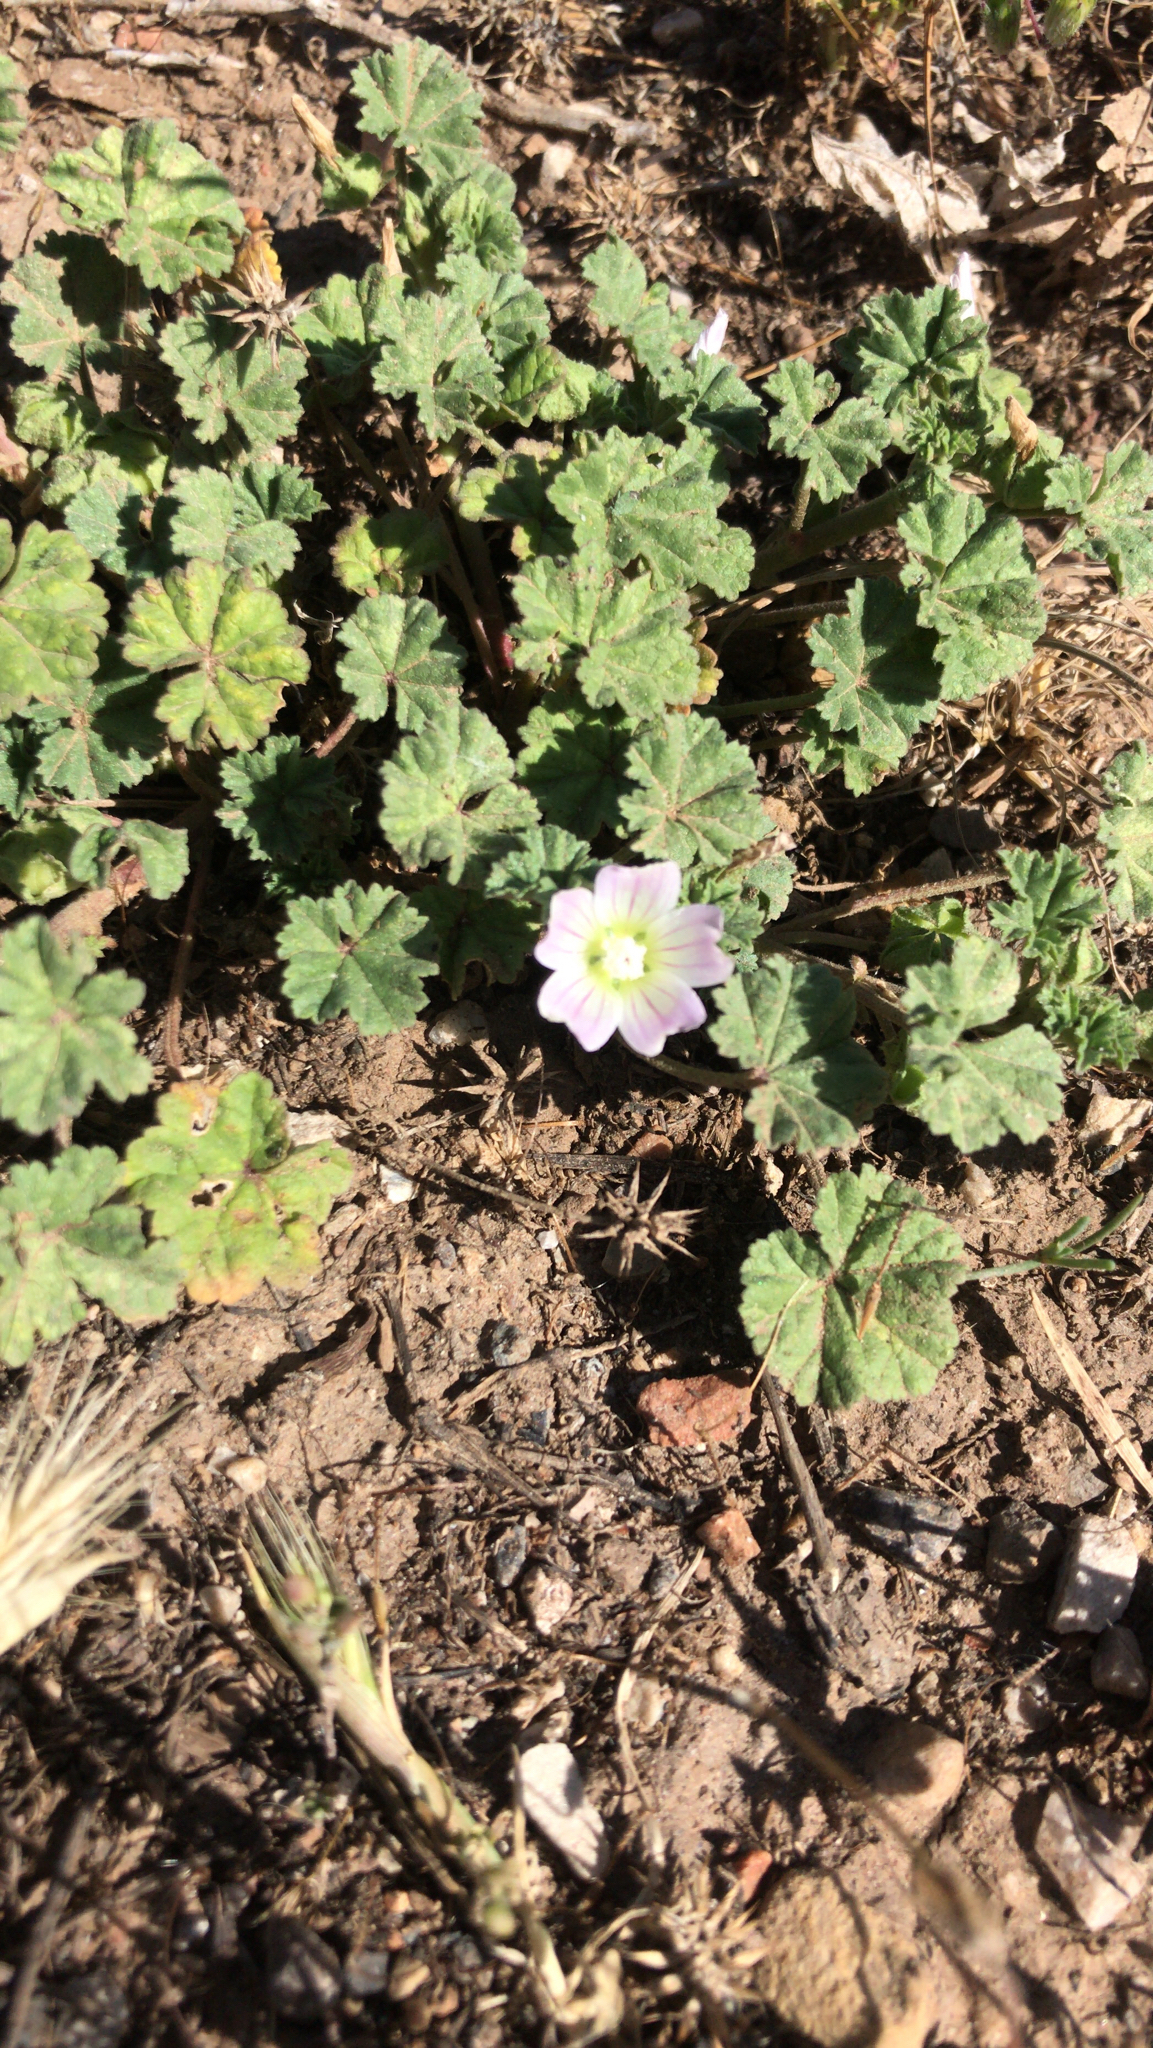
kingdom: Plantae
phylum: Tracheophyta
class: Magnoliopsida
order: Malvales
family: Malvaceae
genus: Malva
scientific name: Malva neglecta
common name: Common mallow
